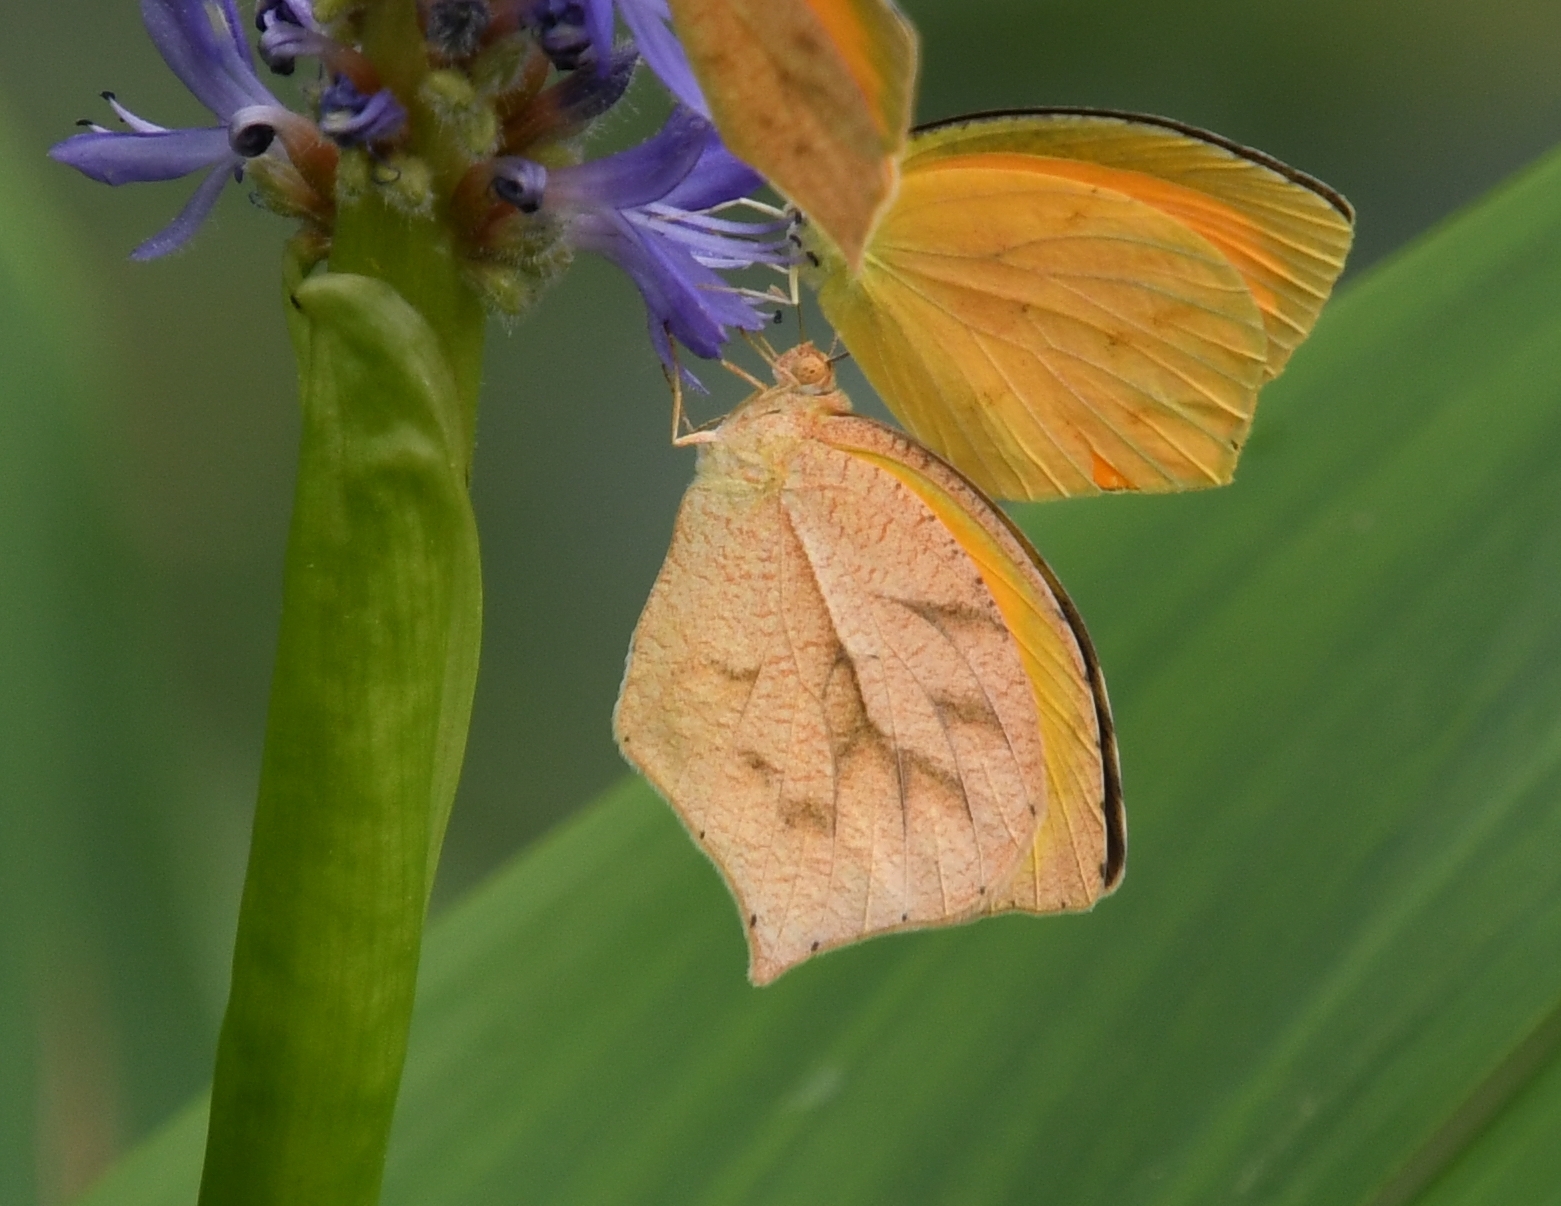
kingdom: Animalia
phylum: Arthropoda
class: Insecta
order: Lepidoptera
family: Pieridae
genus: Pyrisitia
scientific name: Pyrisitia proterpia
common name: Tailed orange
